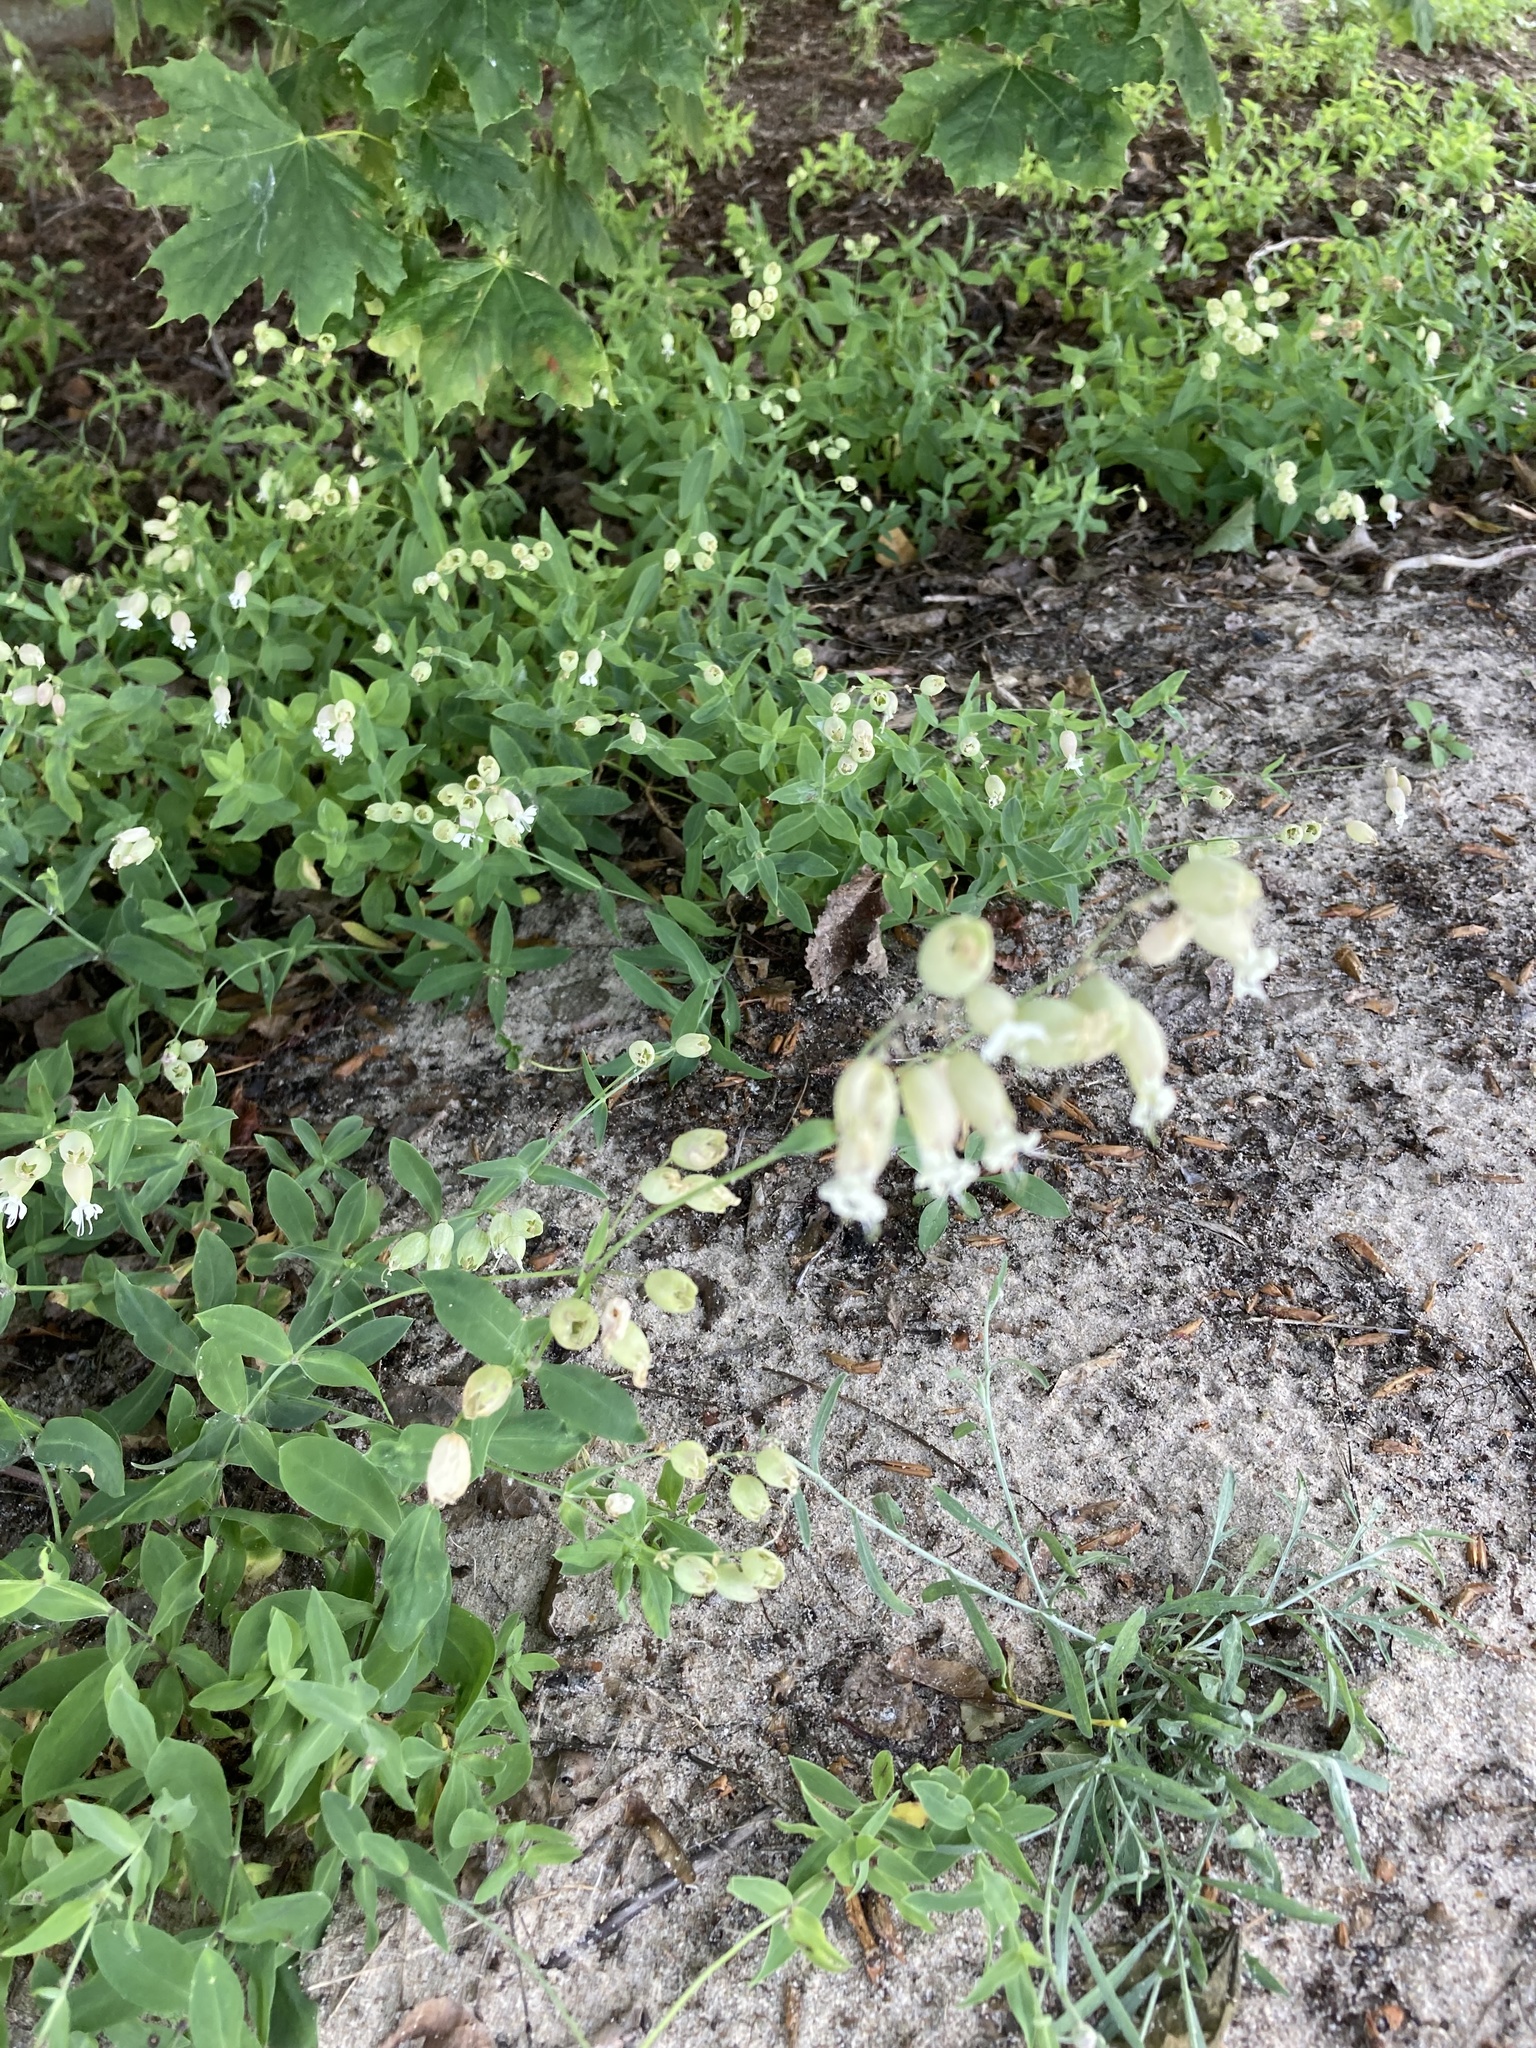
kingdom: Plantae
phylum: Tracheophyta
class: Magnoliopsida
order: Asterales
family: Asteraceae
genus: Centaurea
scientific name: Centaurea stoebe
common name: Spotted knapweed
